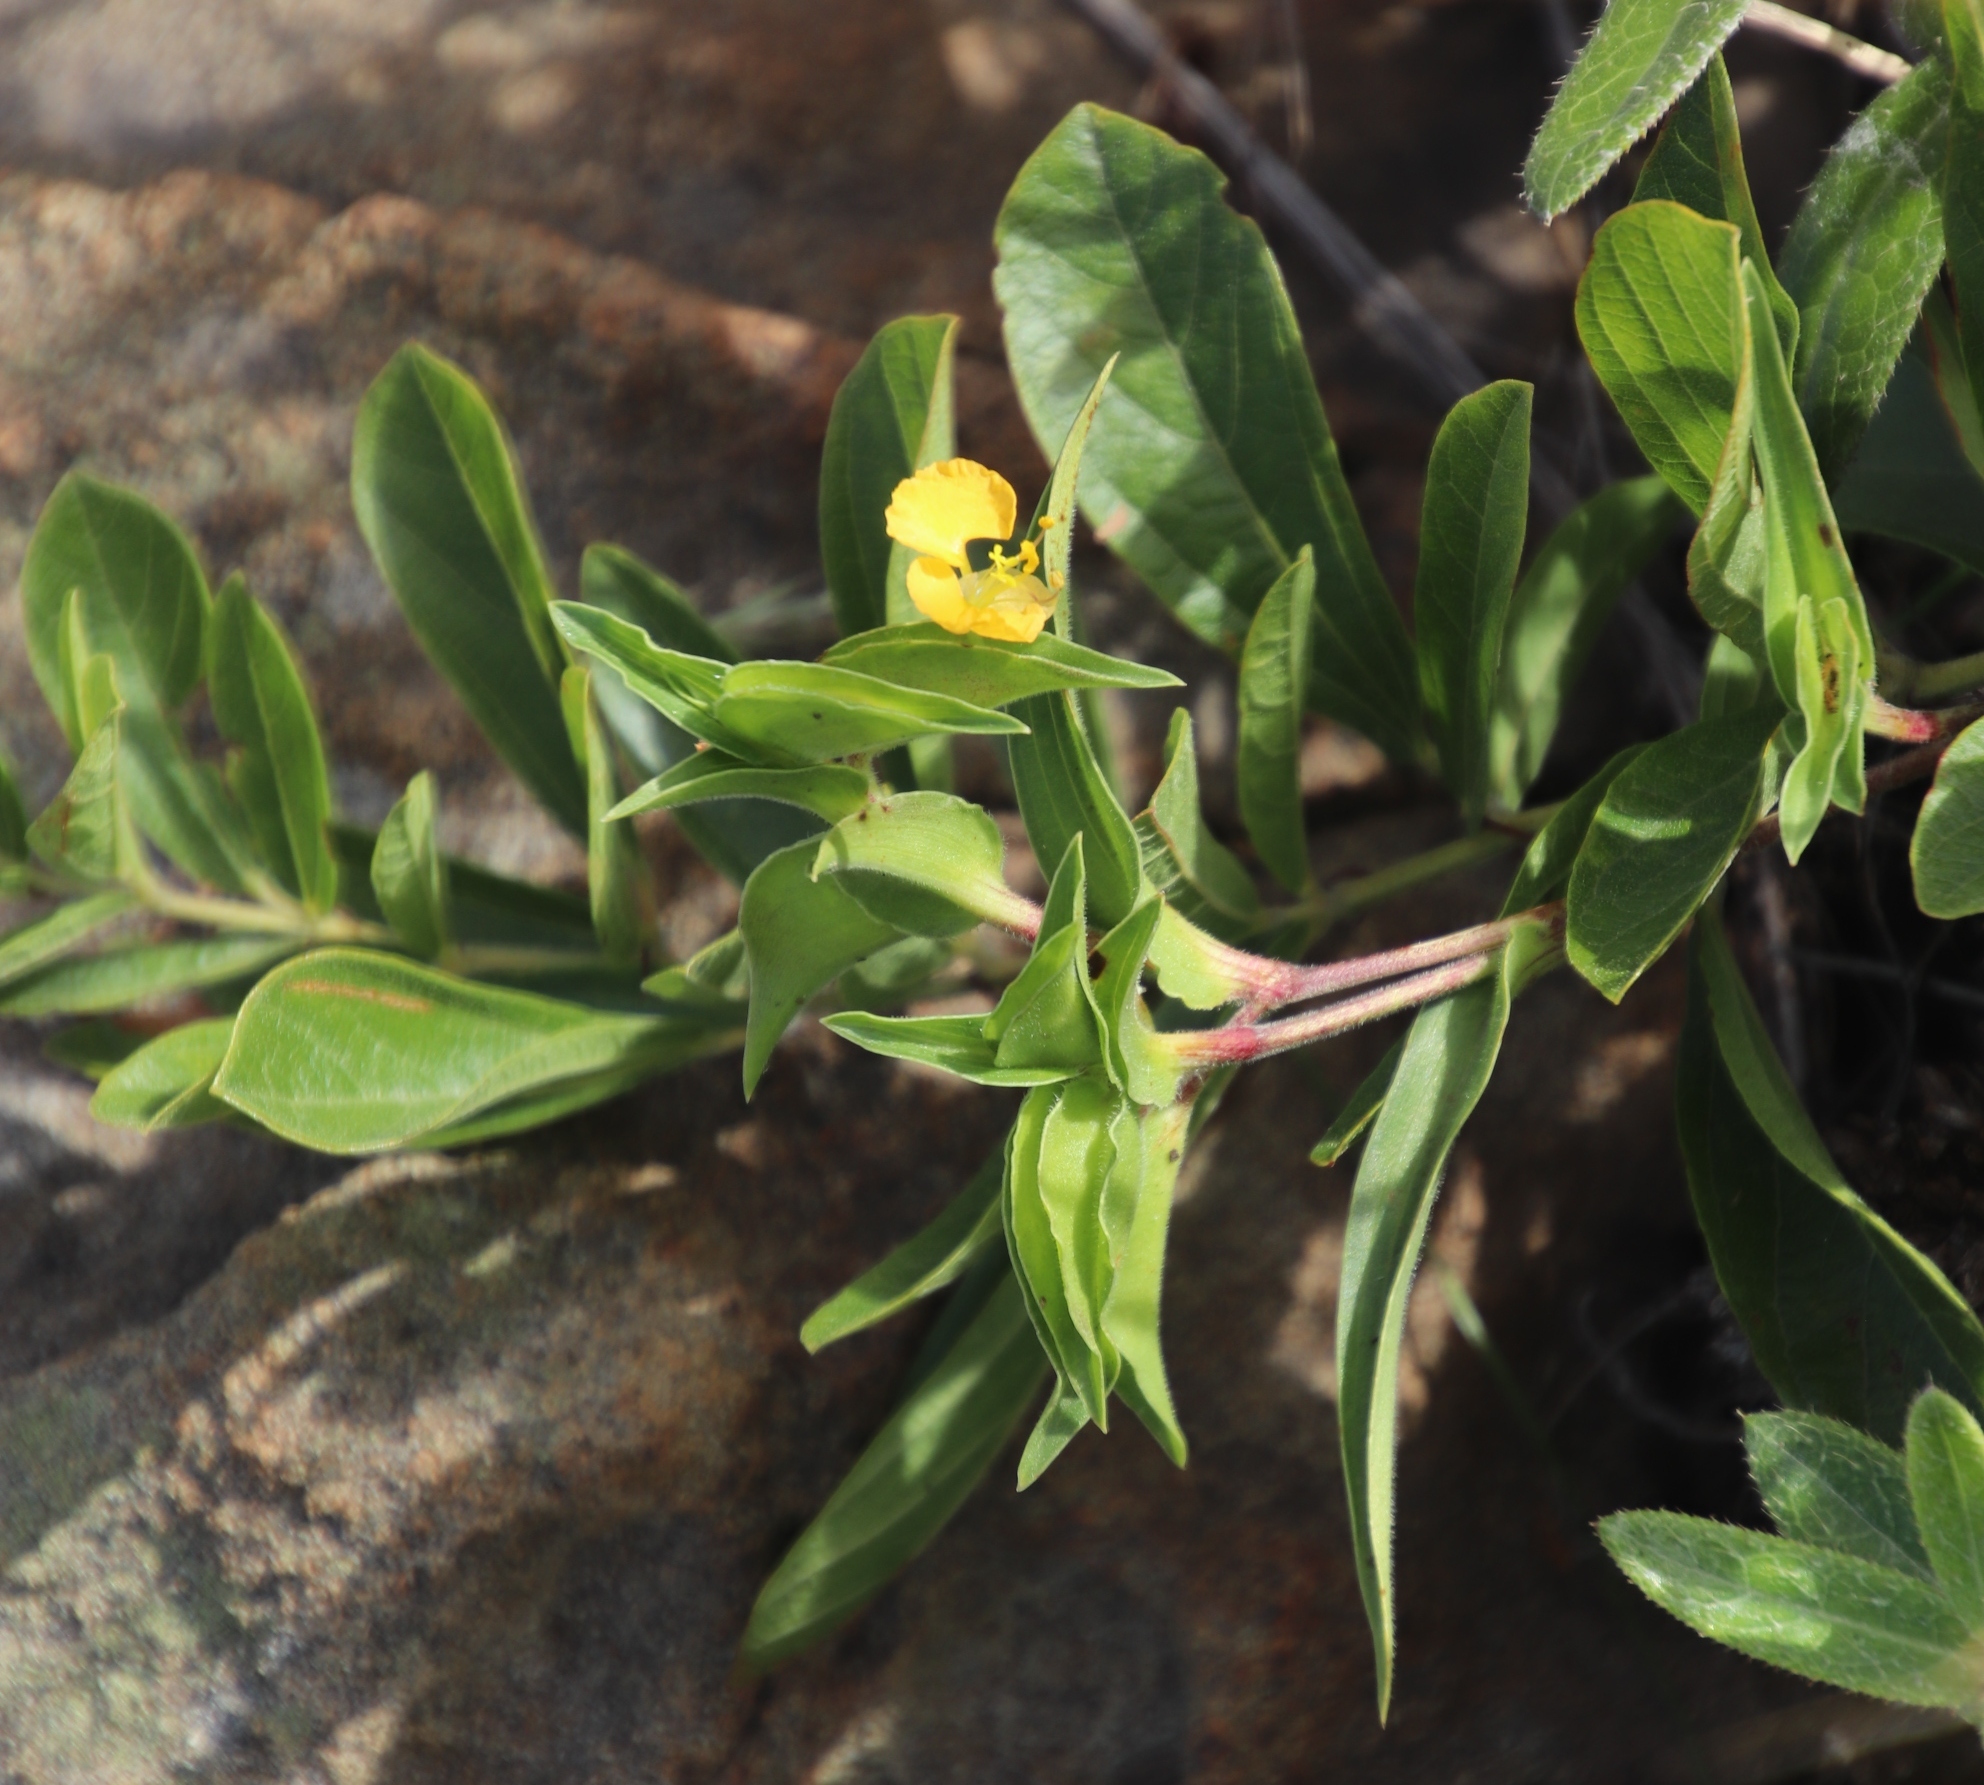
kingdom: Plantae
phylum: Tracheophyta
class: Liliopsida
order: Commelinales
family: Commelinaceae
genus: Commelina
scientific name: Commelina africana
